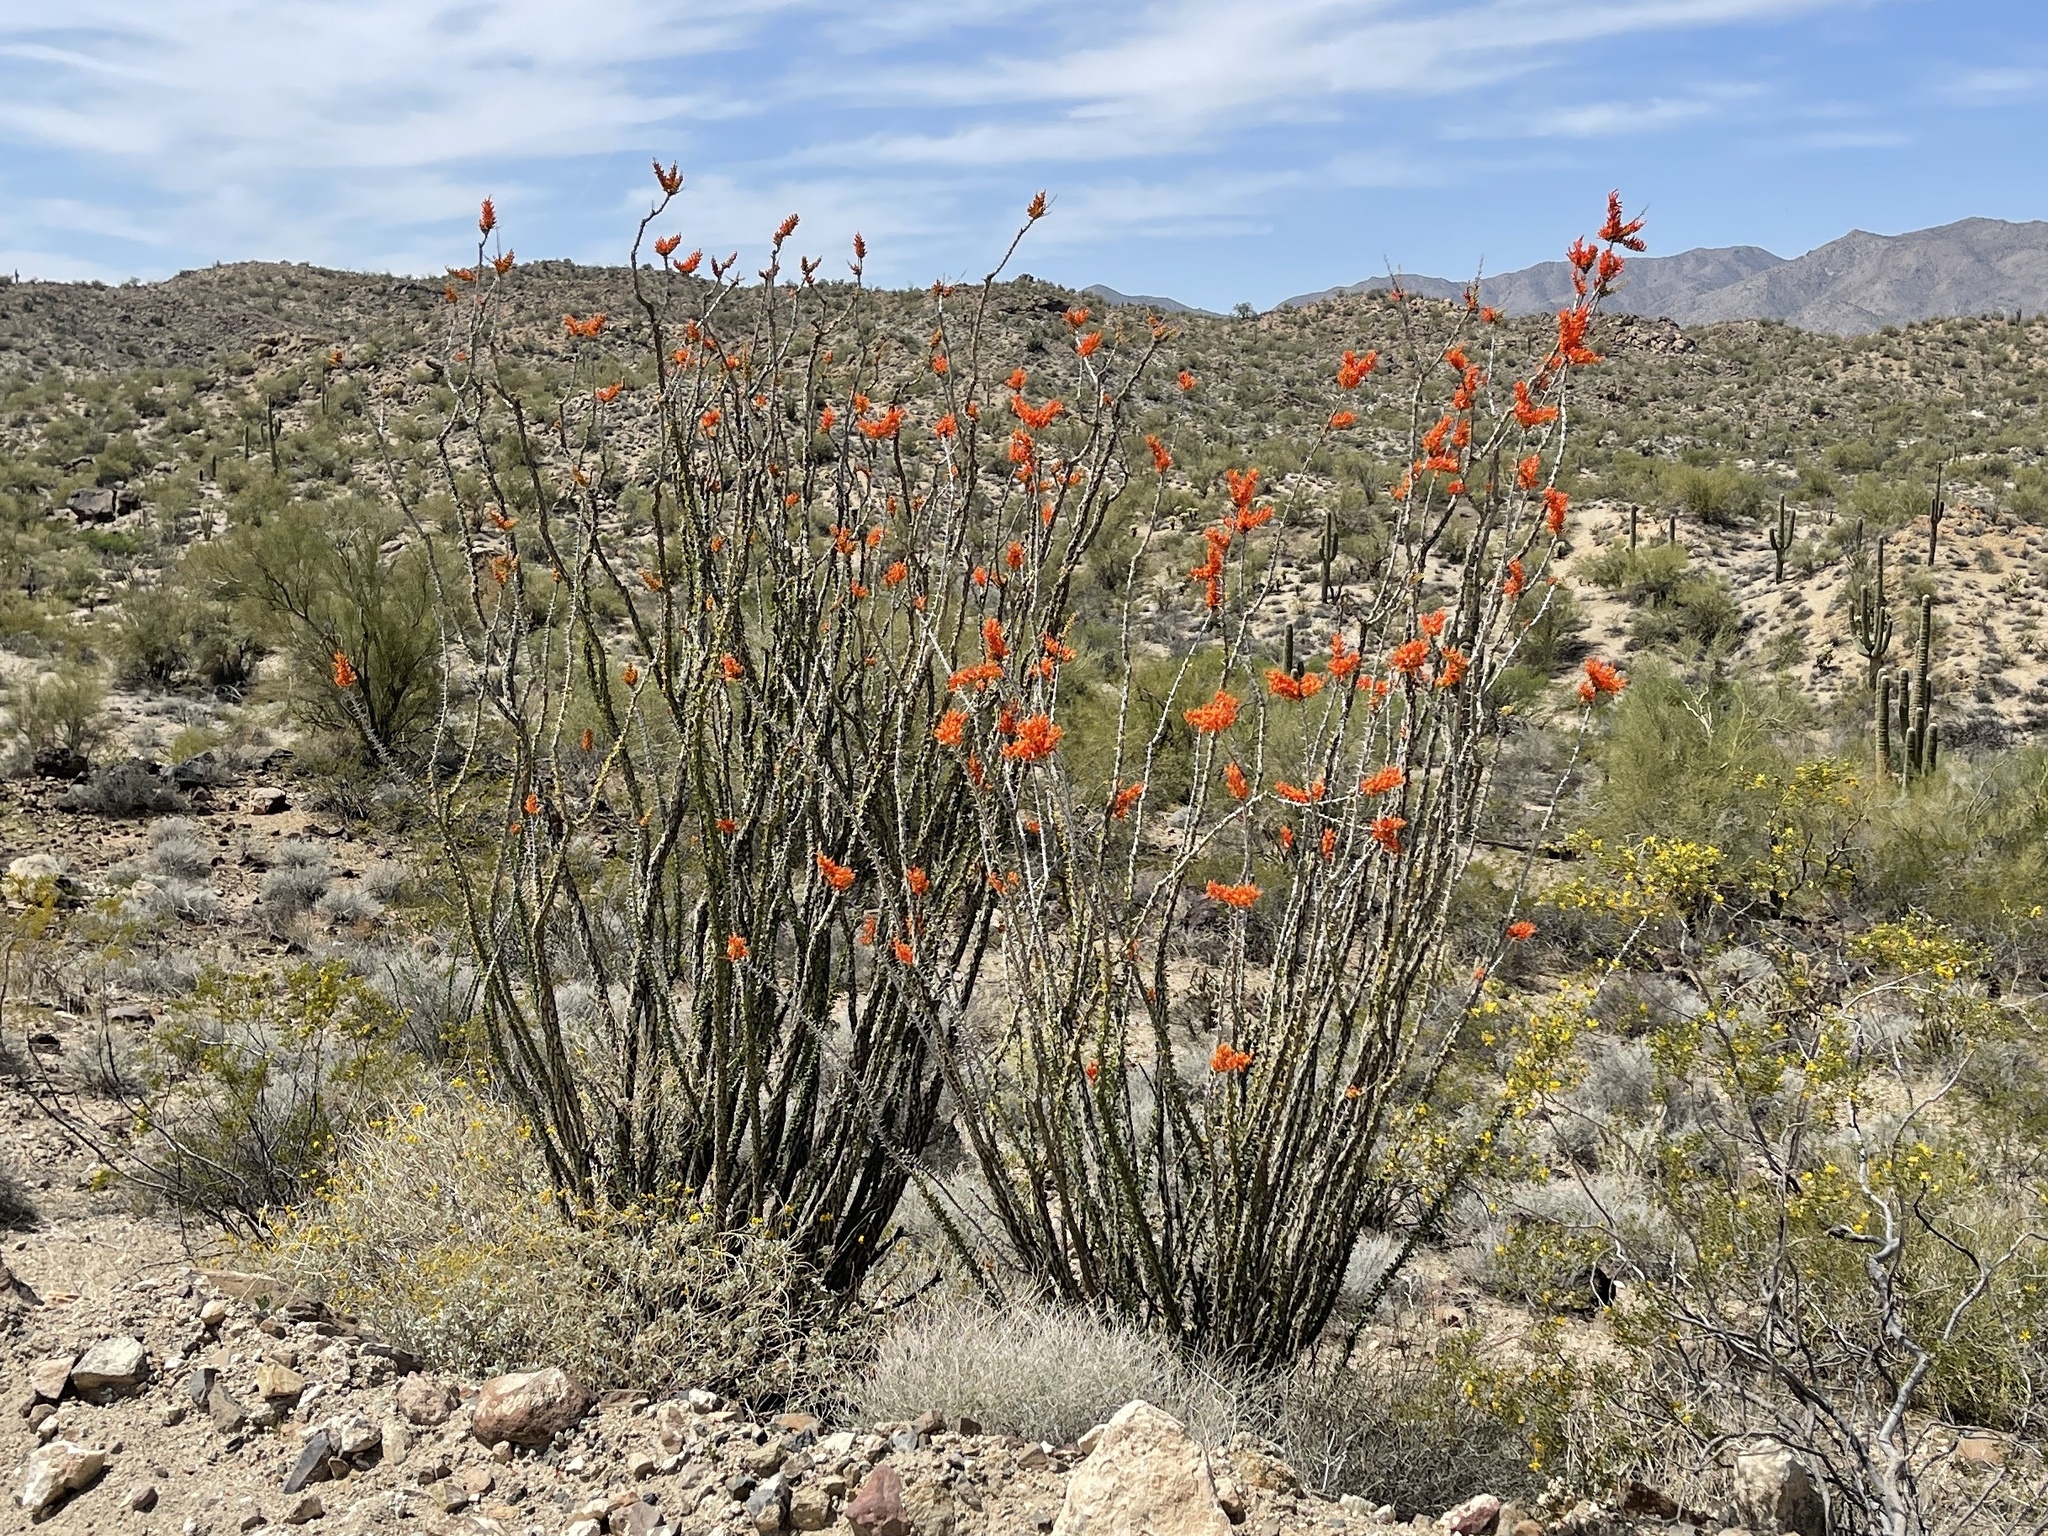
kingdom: Plantae
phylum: Tracheophyta
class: Magnoliopsida
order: Ericales
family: Fouquieriaceae
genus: Fouquieria
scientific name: Fouquieria splendens
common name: Vine-cactus
